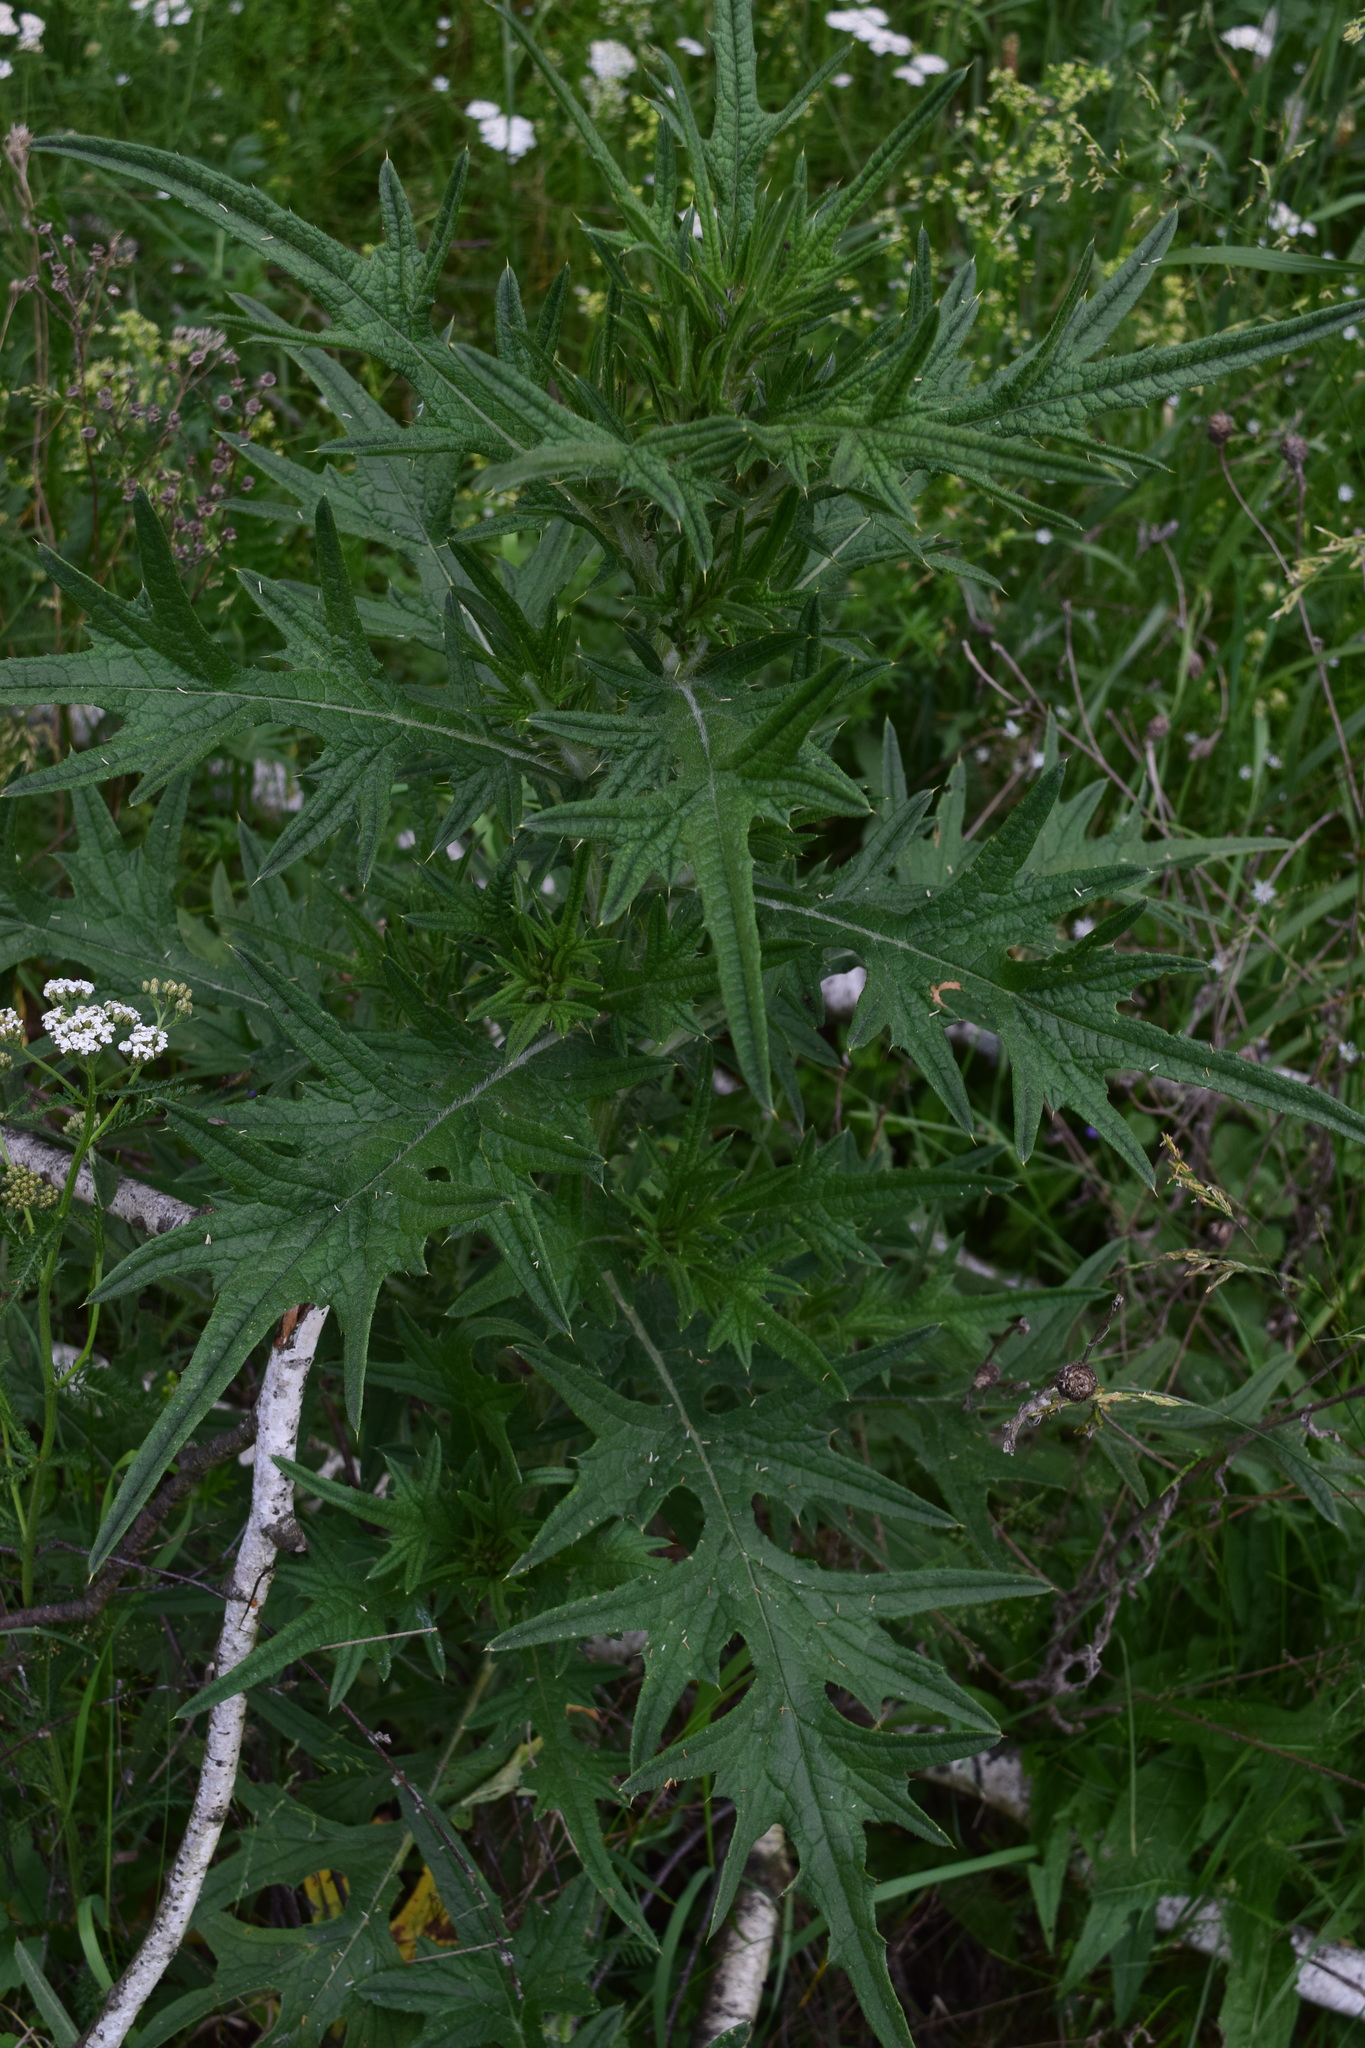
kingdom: Plantae
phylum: Tracheophyta
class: Magnoliopsida
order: Asterales
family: Asteraceae
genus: Cirsium
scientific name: Cirsium vulgare
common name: Bull thistle
